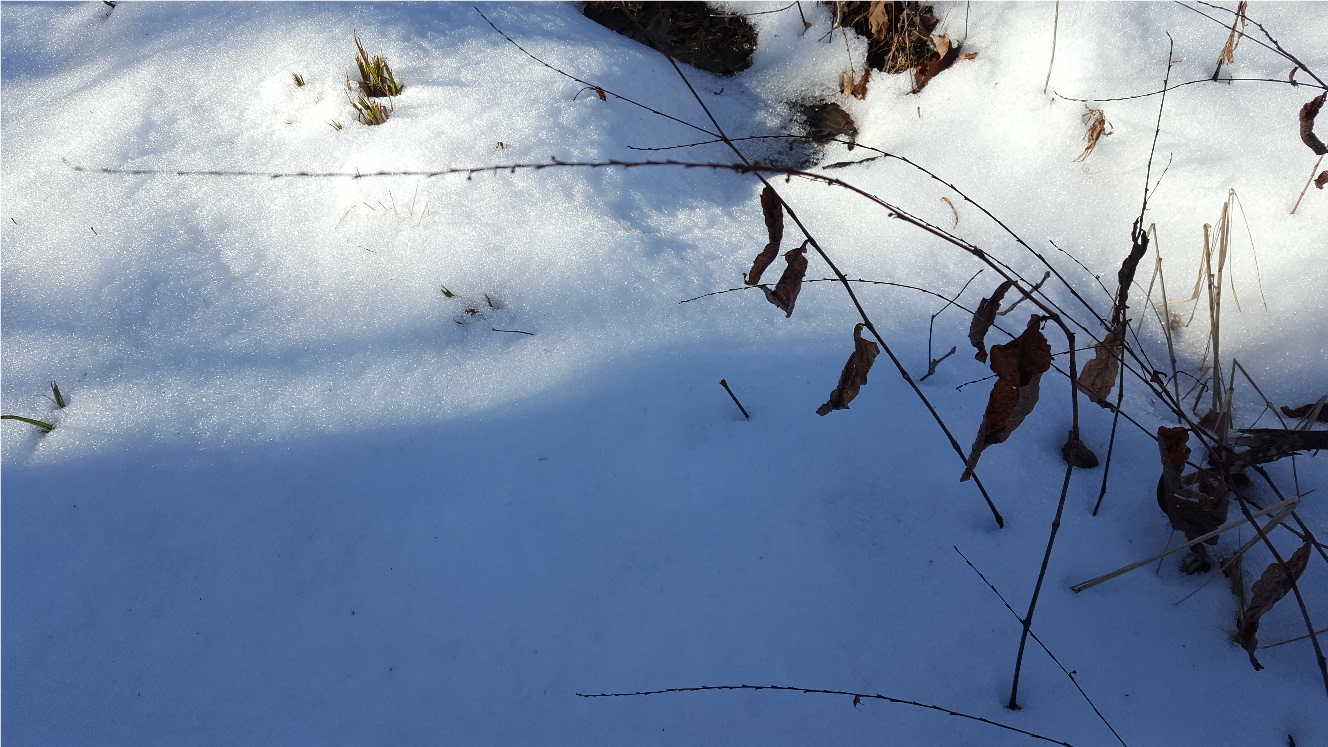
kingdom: Plantae
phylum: Tracheophyta
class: Magnoliopsida
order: Caryophyllales
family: Polygonaceae
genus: Persicaria
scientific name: Persicaria virginiana
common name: Jumpseed
